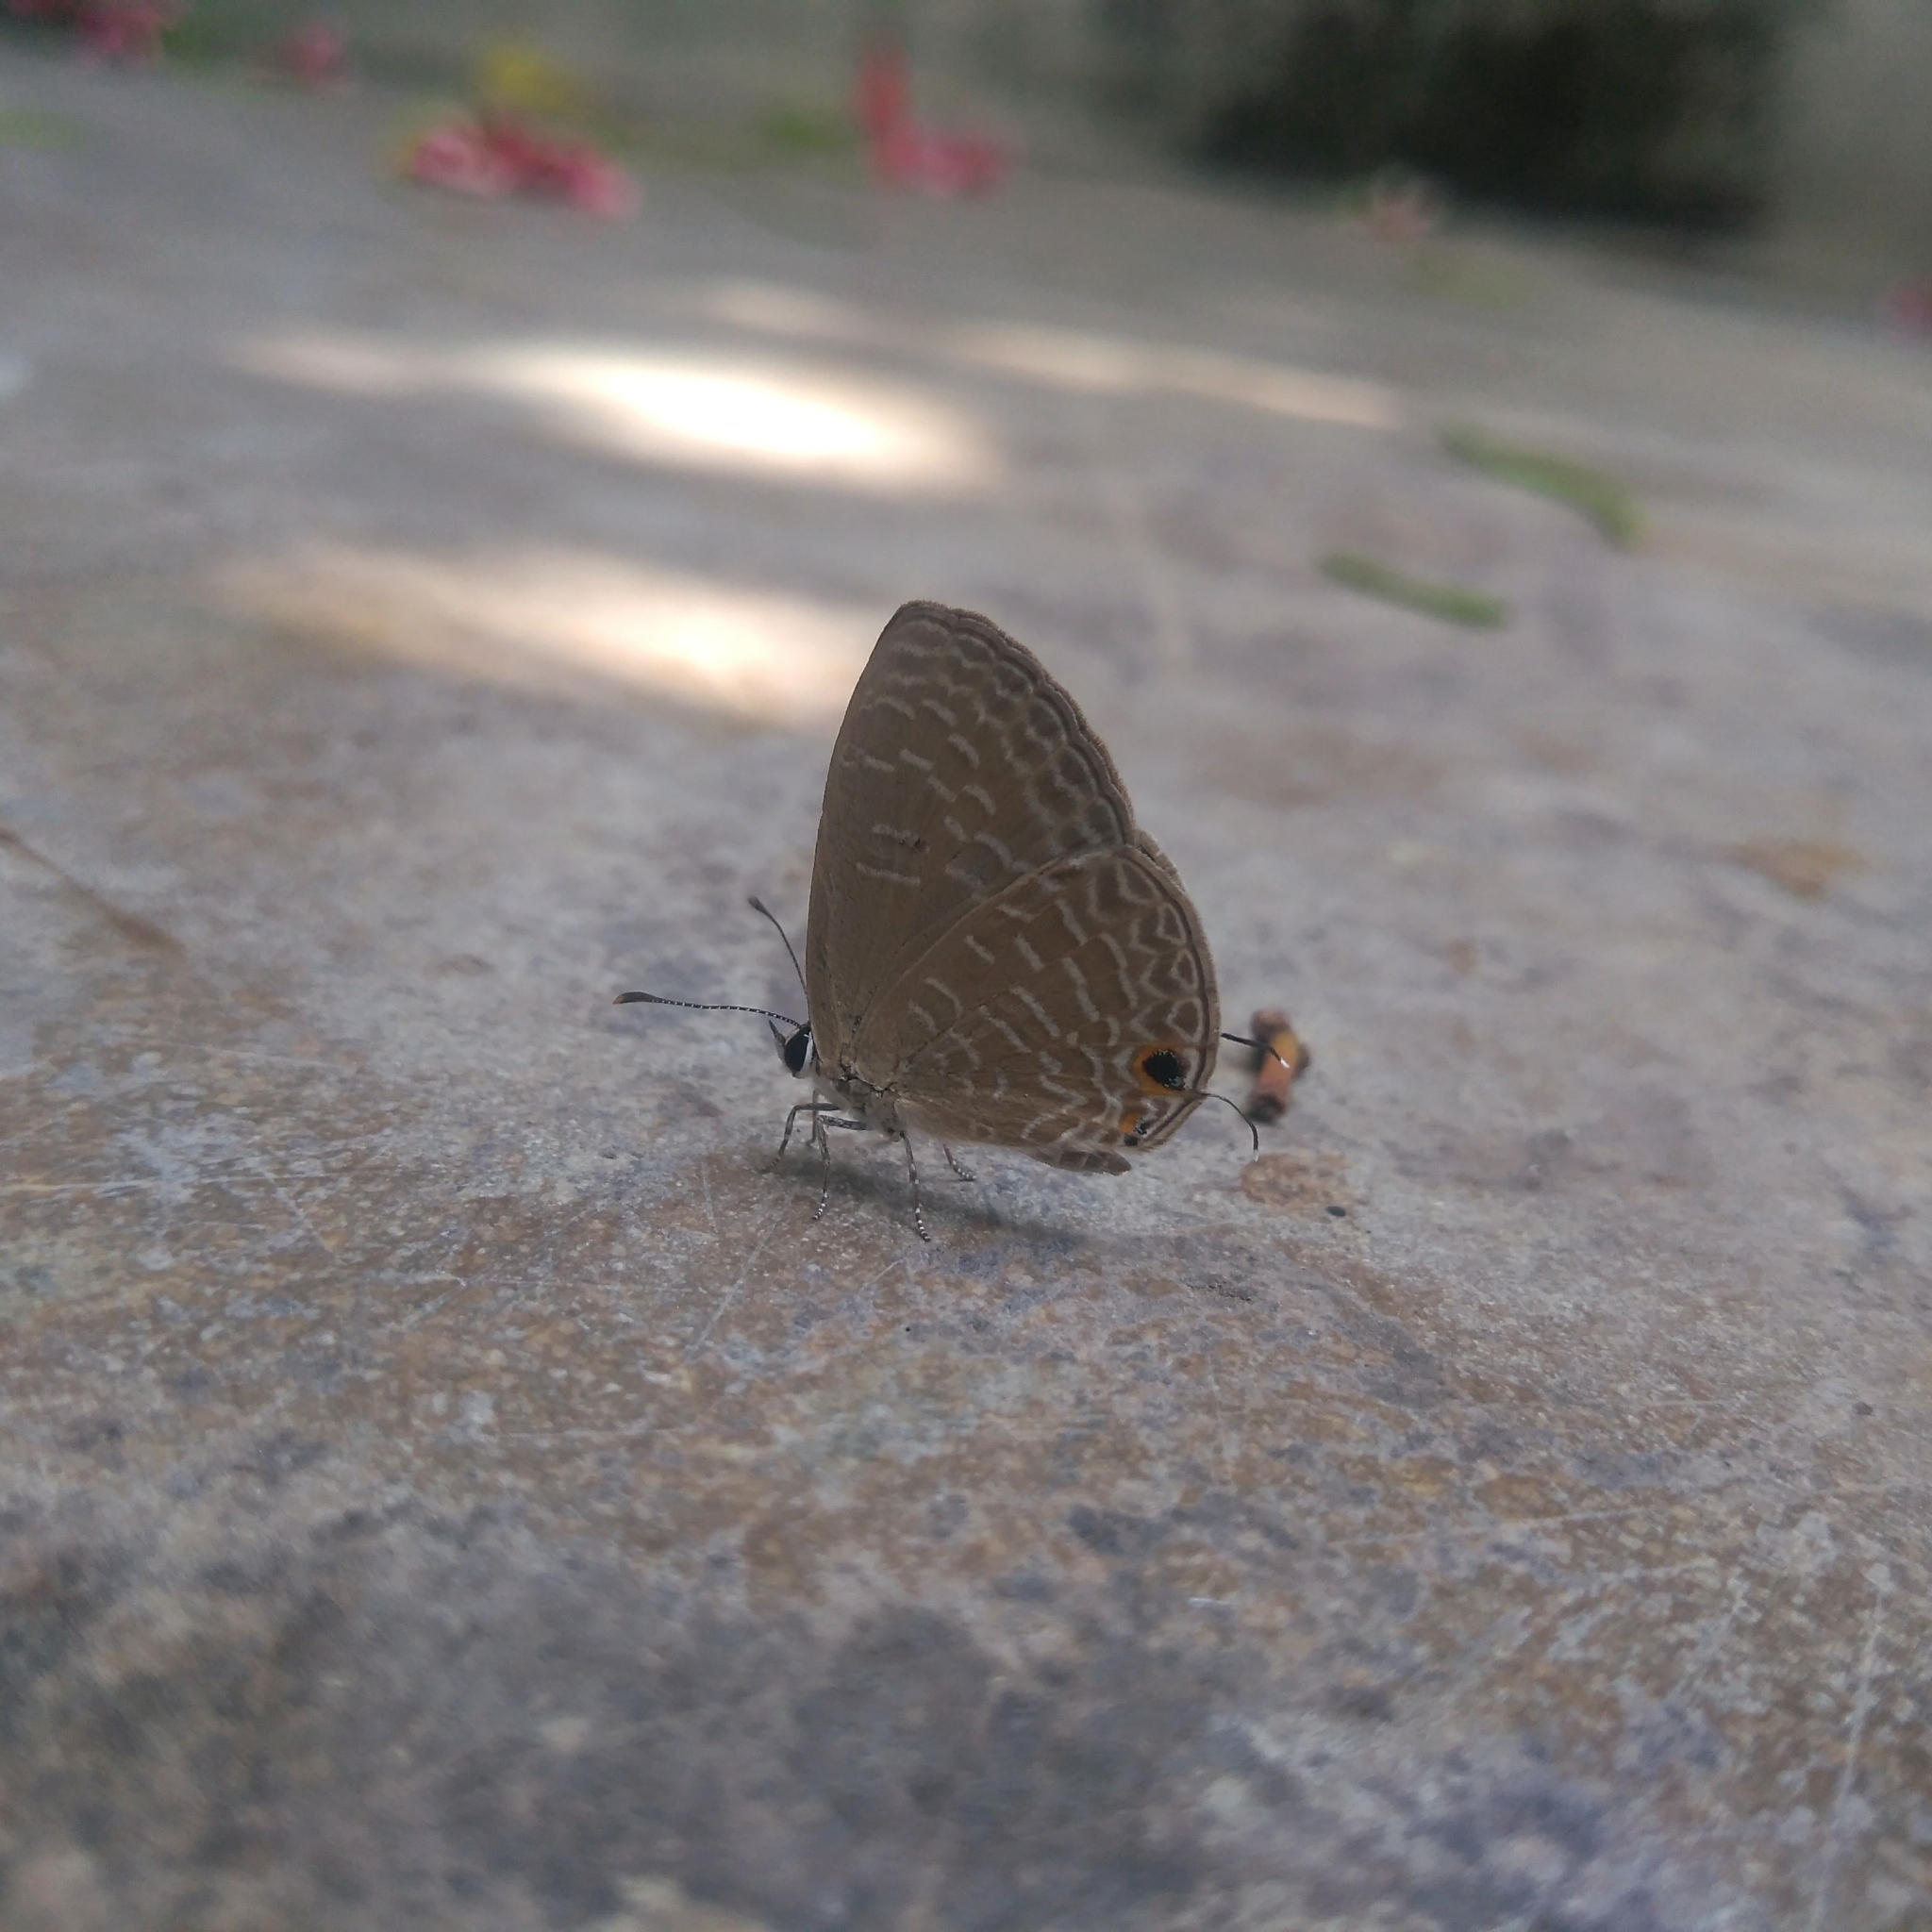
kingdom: Animalia
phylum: Arthropoda
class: Insecta
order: Lepidoptera
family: Lycaenidae
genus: Jamides
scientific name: Jamides bochus
